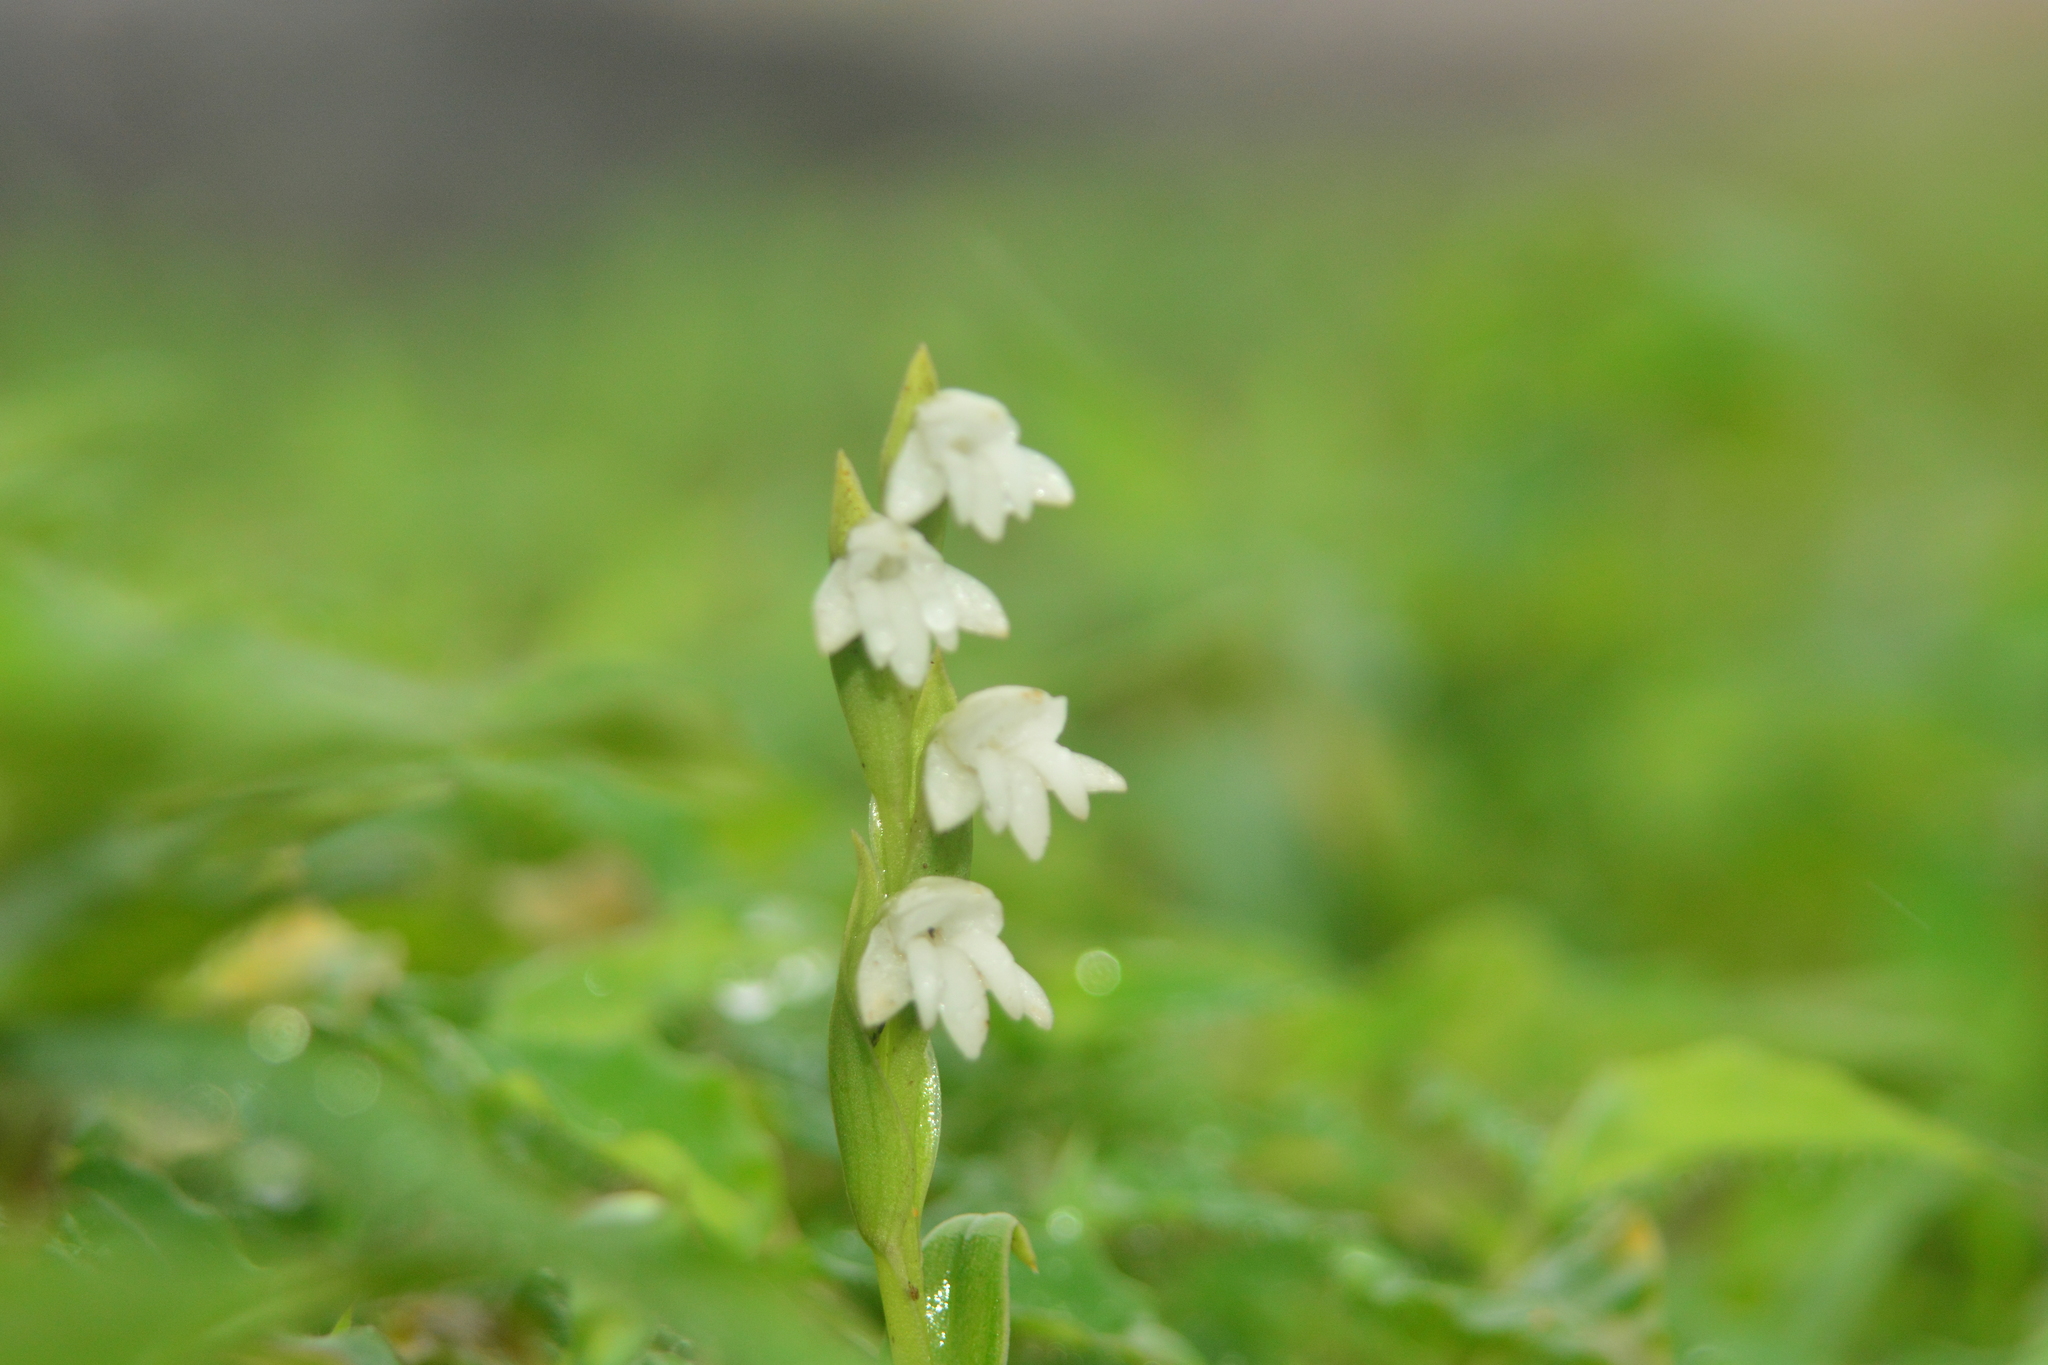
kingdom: Plantae
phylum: Tracheophyta
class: Liliopsida
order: Asparagales
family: Orchidaceae
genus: Habenaria
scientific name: Habenaria heyneana
